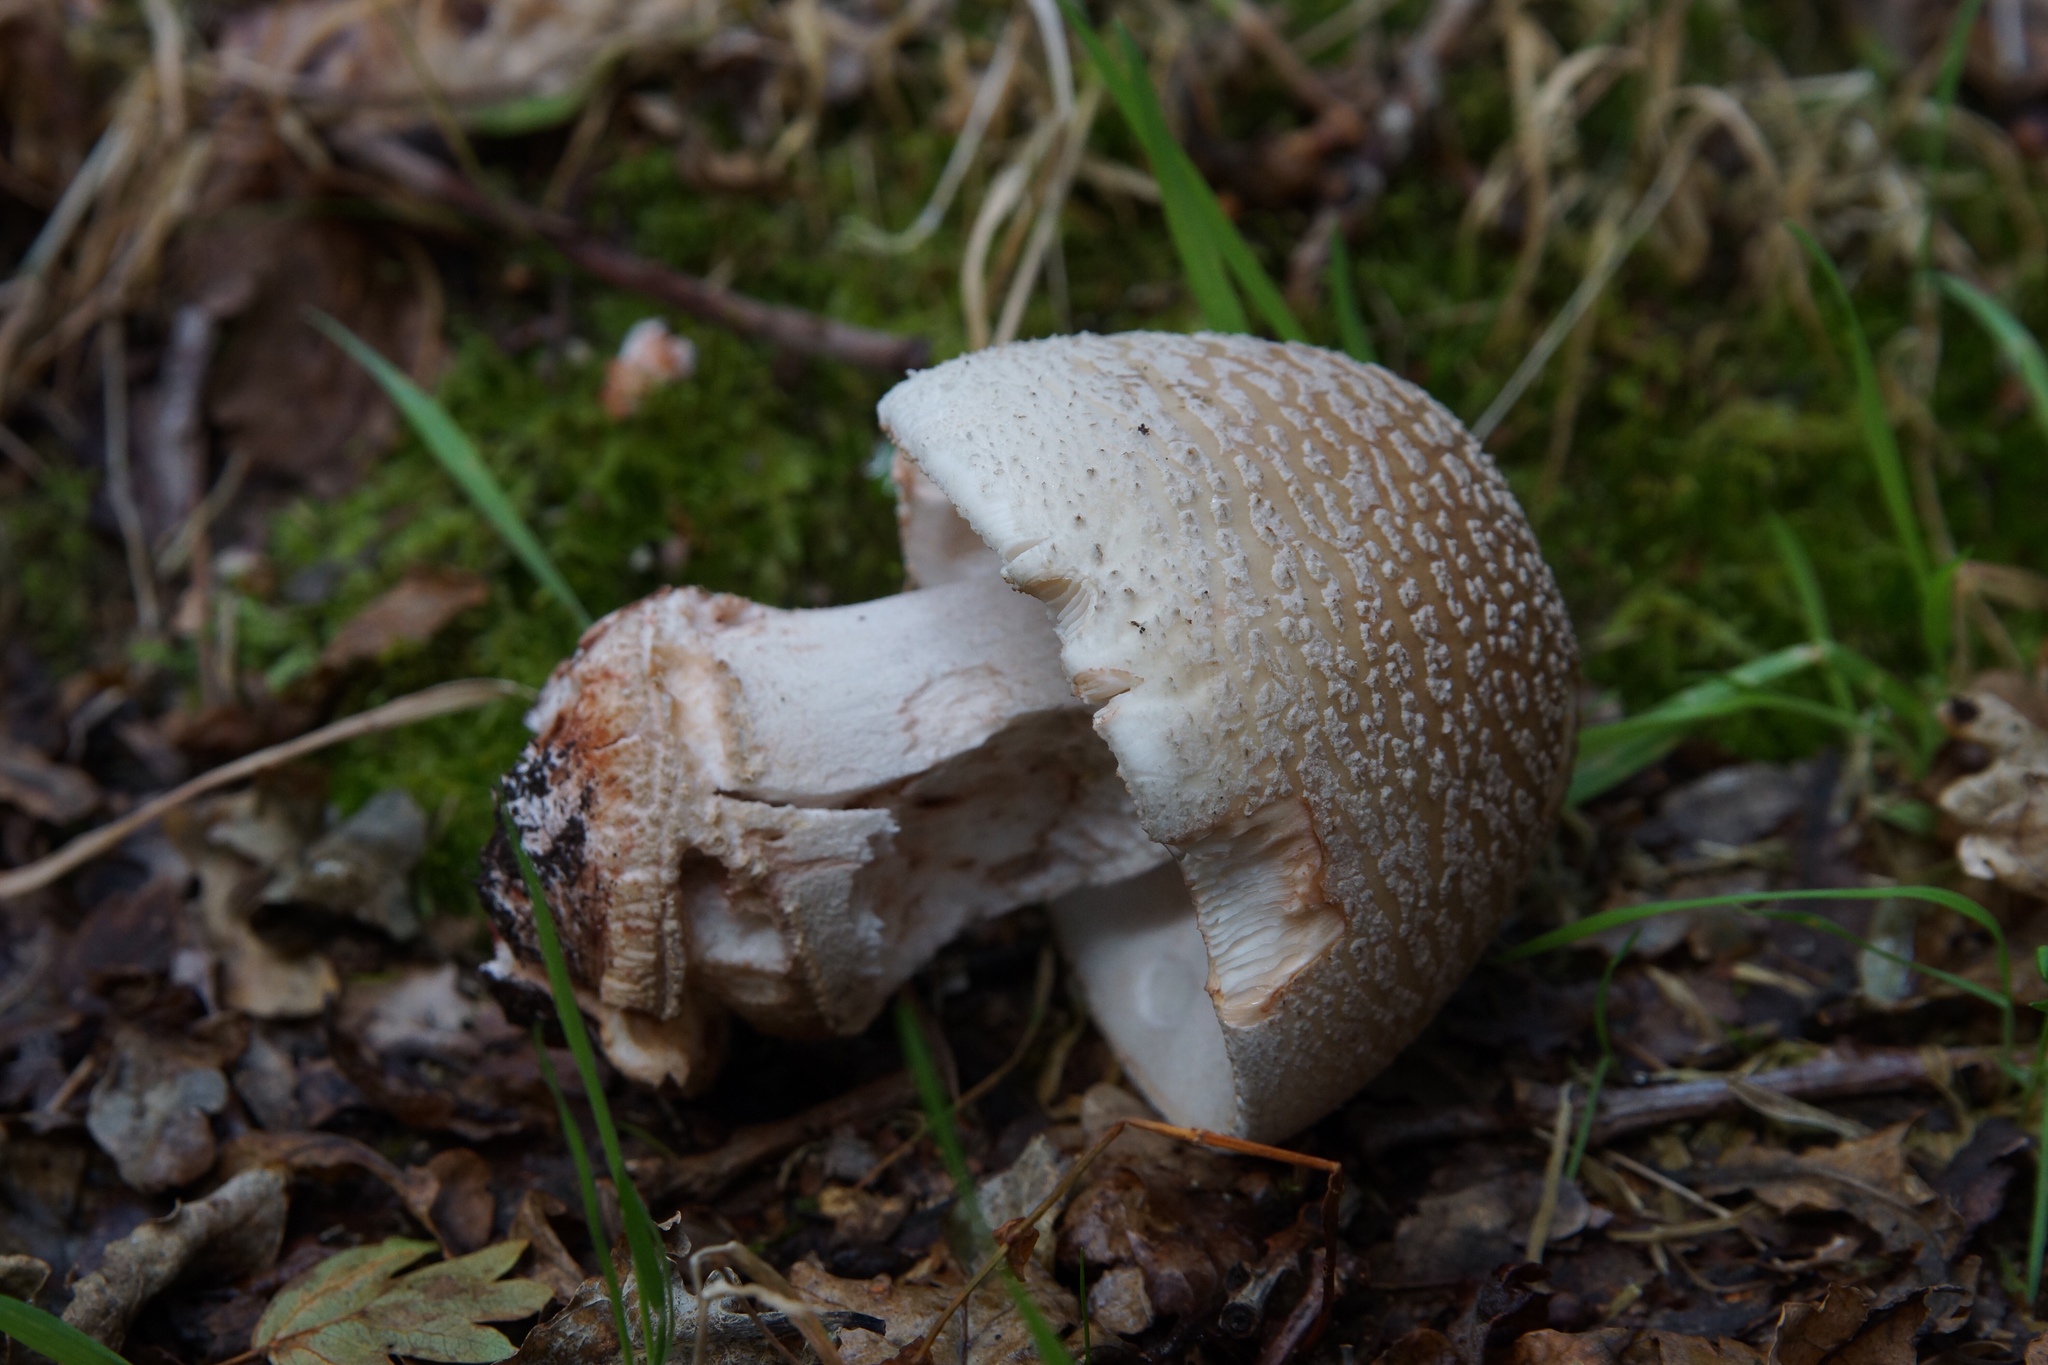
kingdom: Fungi
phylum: Basidiomycota
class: Agaricomycetes
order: Agaricales
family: Amanitaceae
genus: Amanita
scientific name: Amanita rubescens
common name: Blusher
